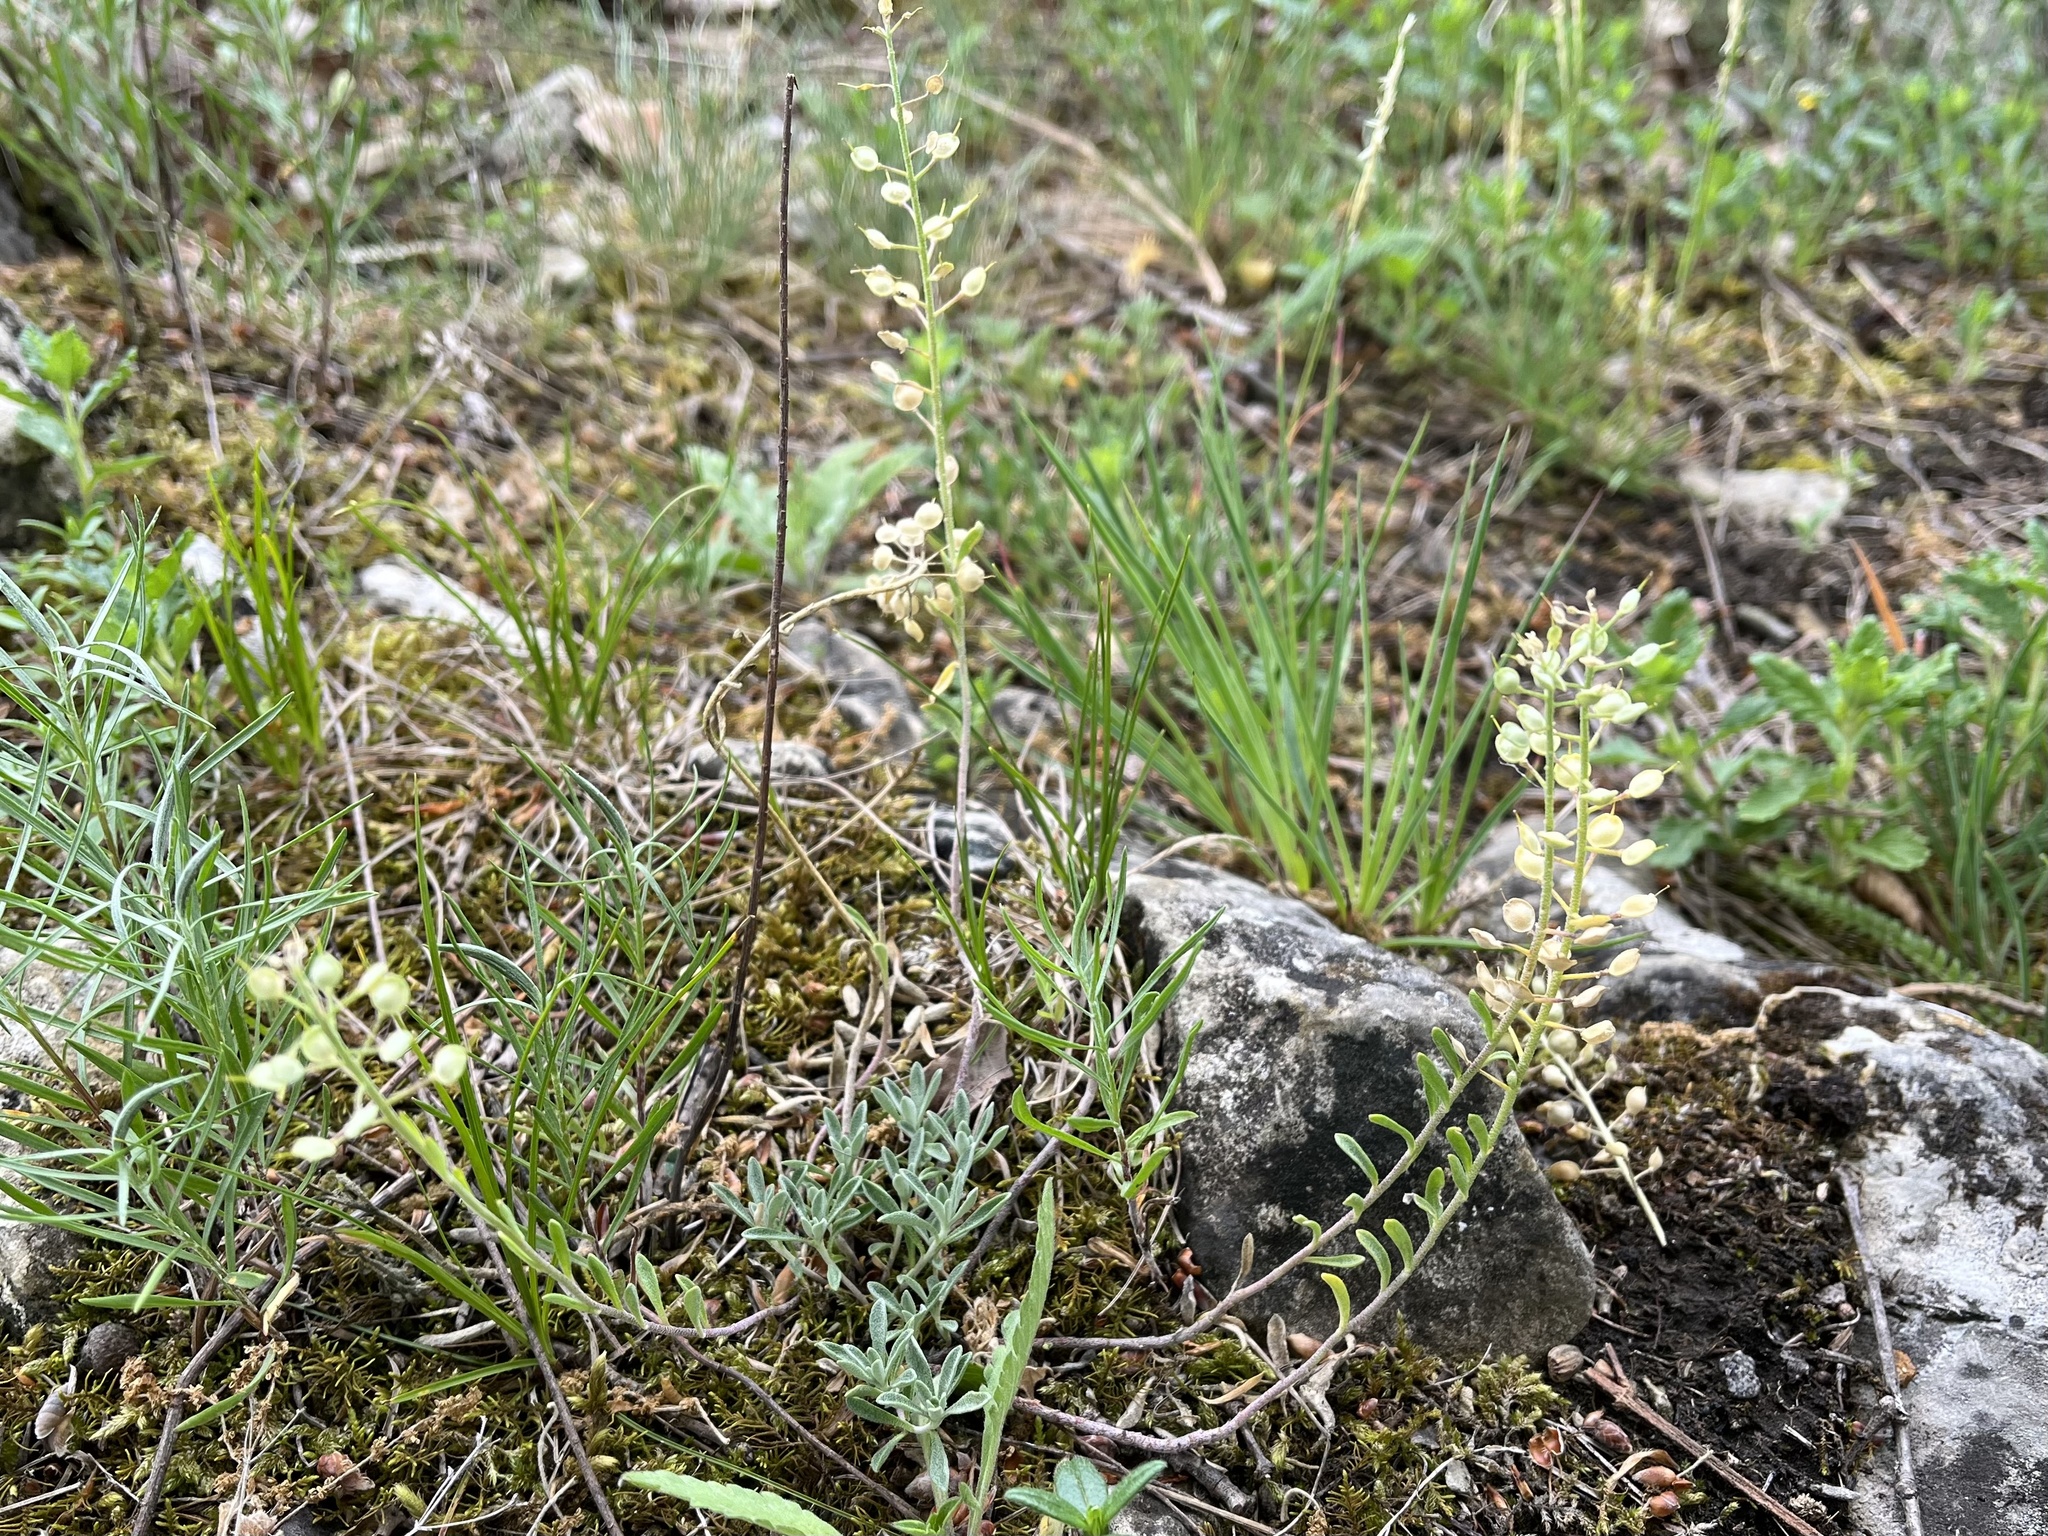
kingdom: Plantae
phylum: Tracheophyta
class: Magnoliopsida
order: Brassicales
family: Brassicaceae
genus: Alyssum
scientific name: Alyssum gmelinii
